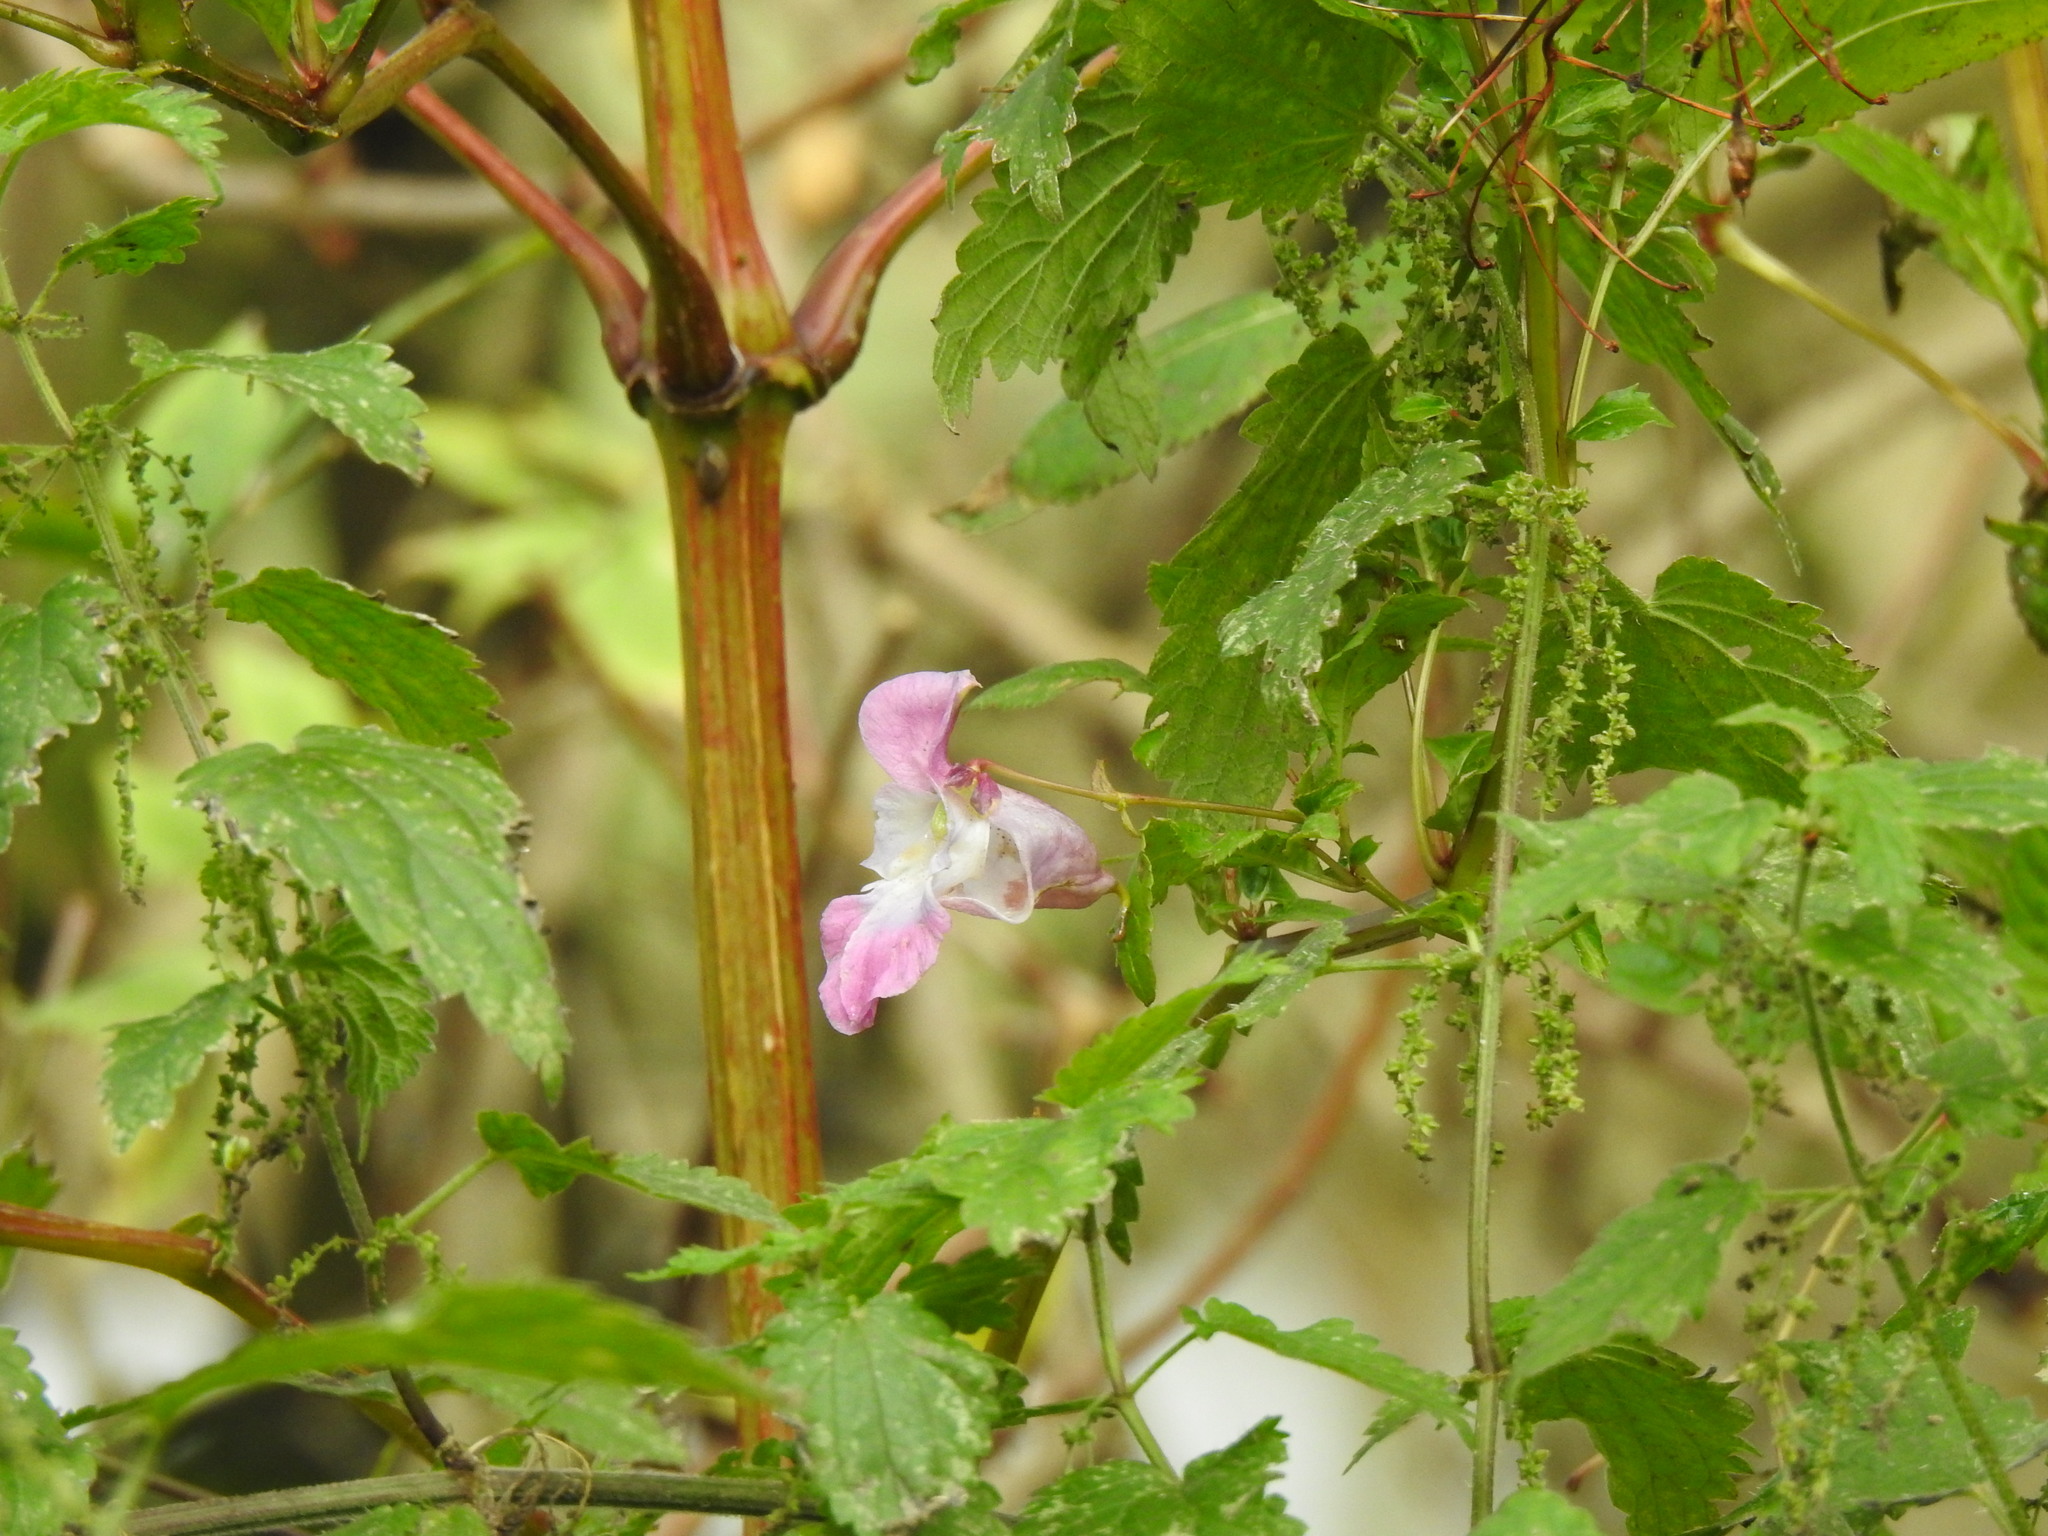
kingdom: Plantae
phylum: Tracheophyta
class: Magnoliopsida
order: Ericales
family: Balsaminaceae
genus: Impatiens
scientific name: Impatiens glandulifera
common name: Himalayan balsam
